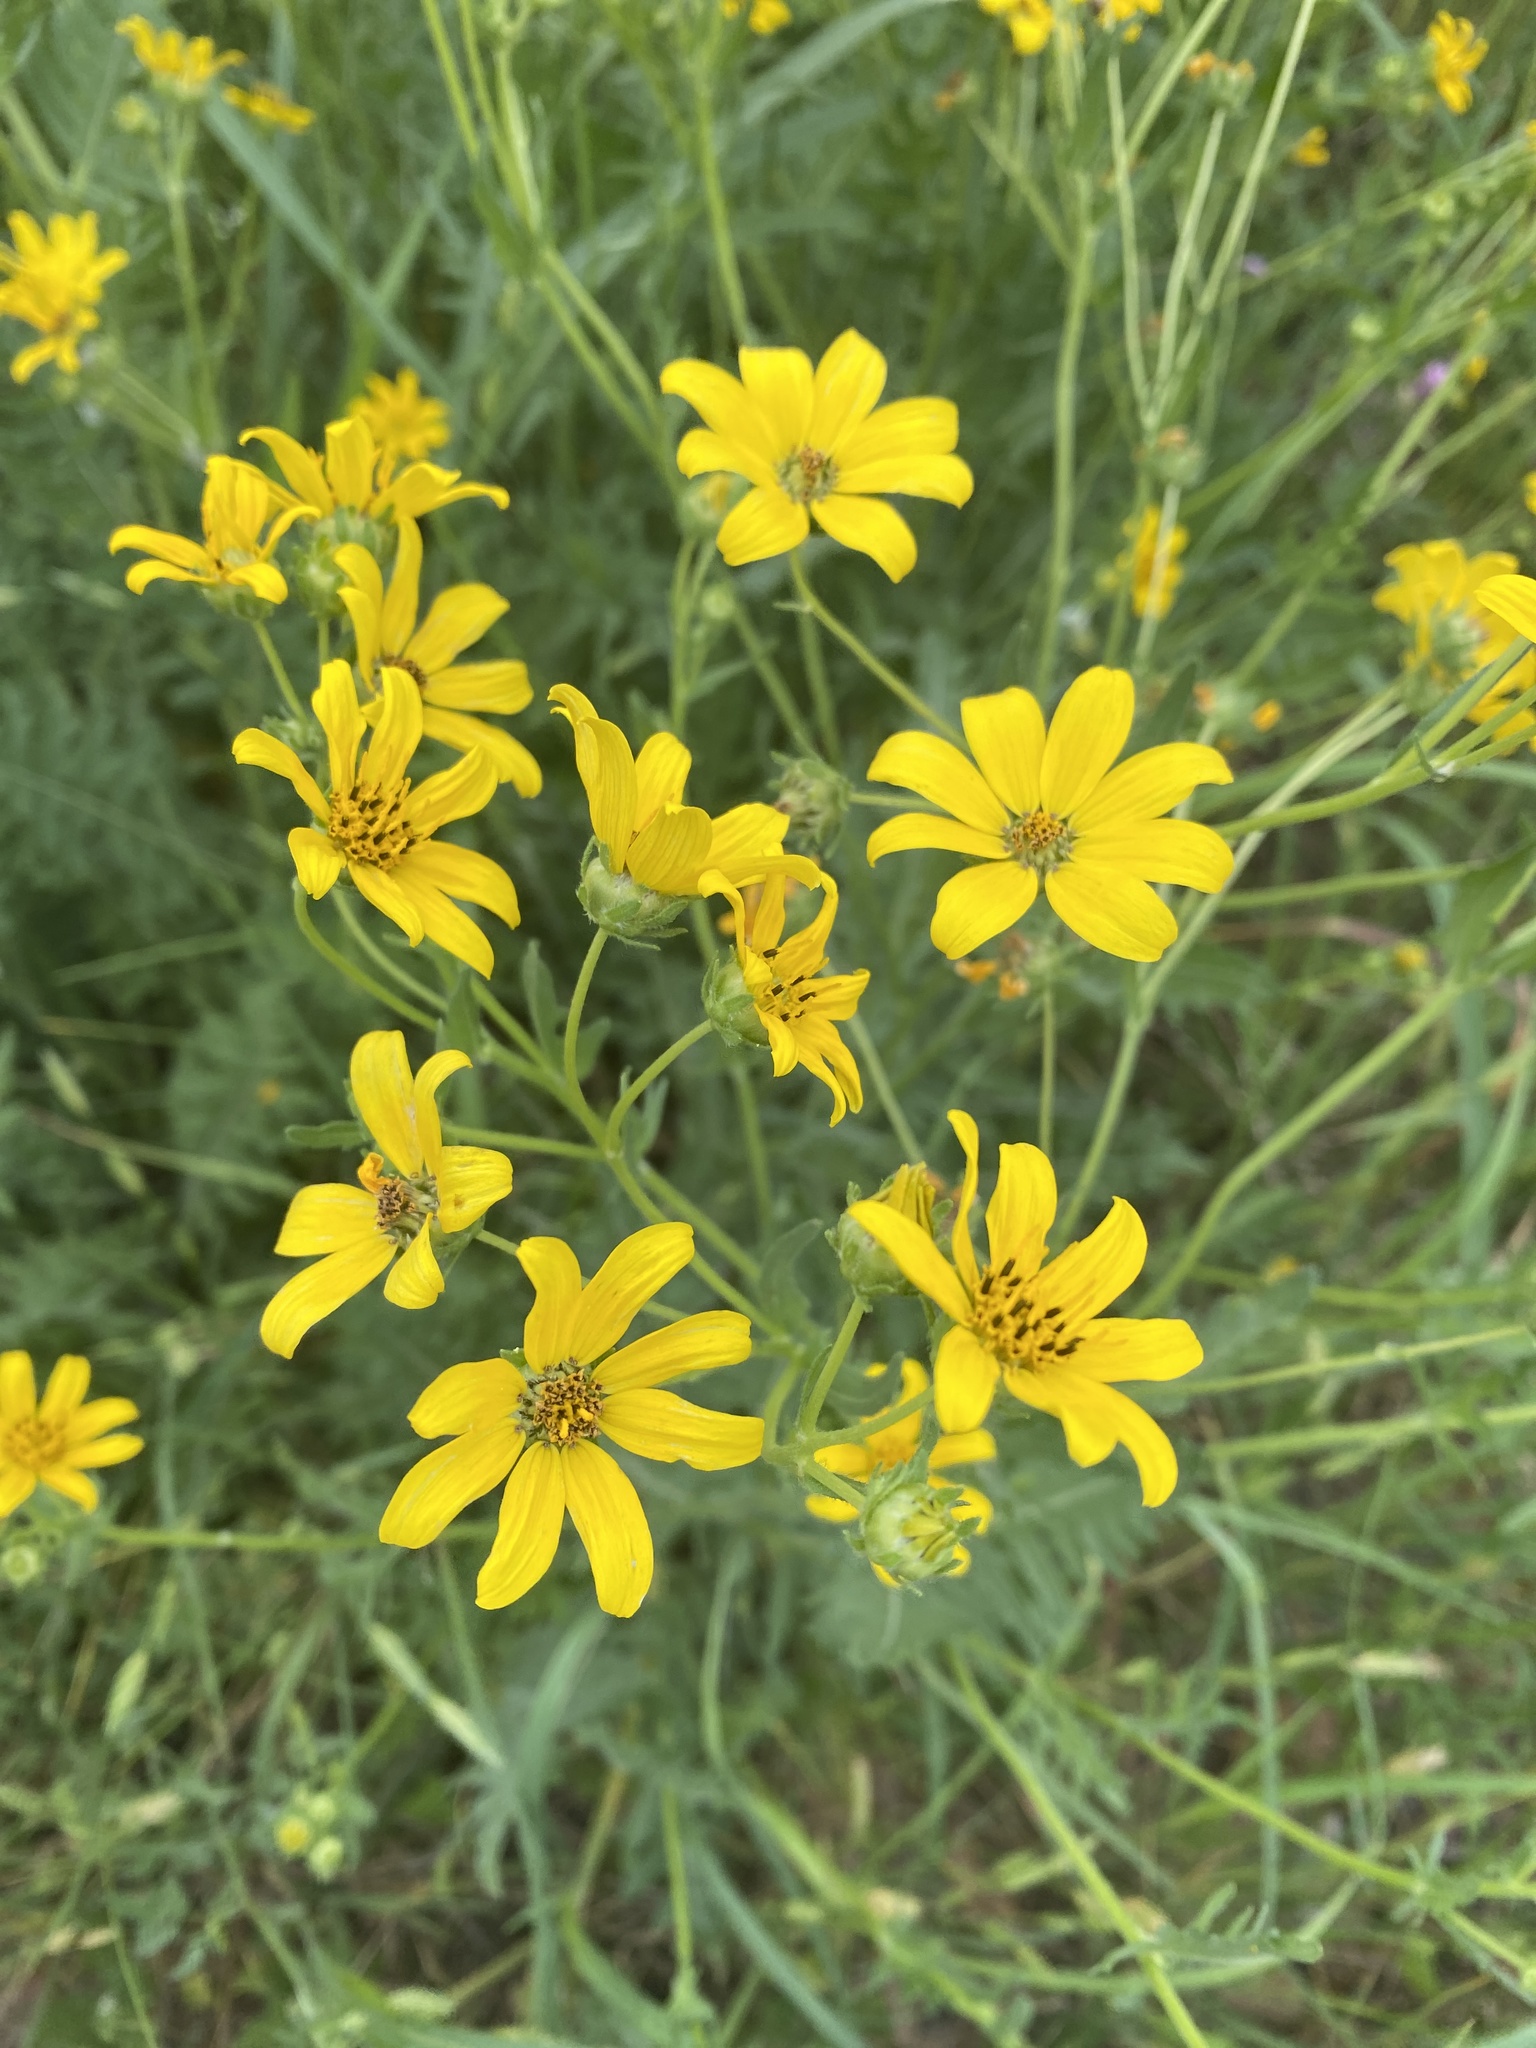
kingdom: Plantae
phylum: Tracheophyta
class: Magnoliopsida
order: Asterales
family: Asteraceae
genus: Engelmannia
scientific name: Engelmannia peristenia
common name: Engelmann's daisy
